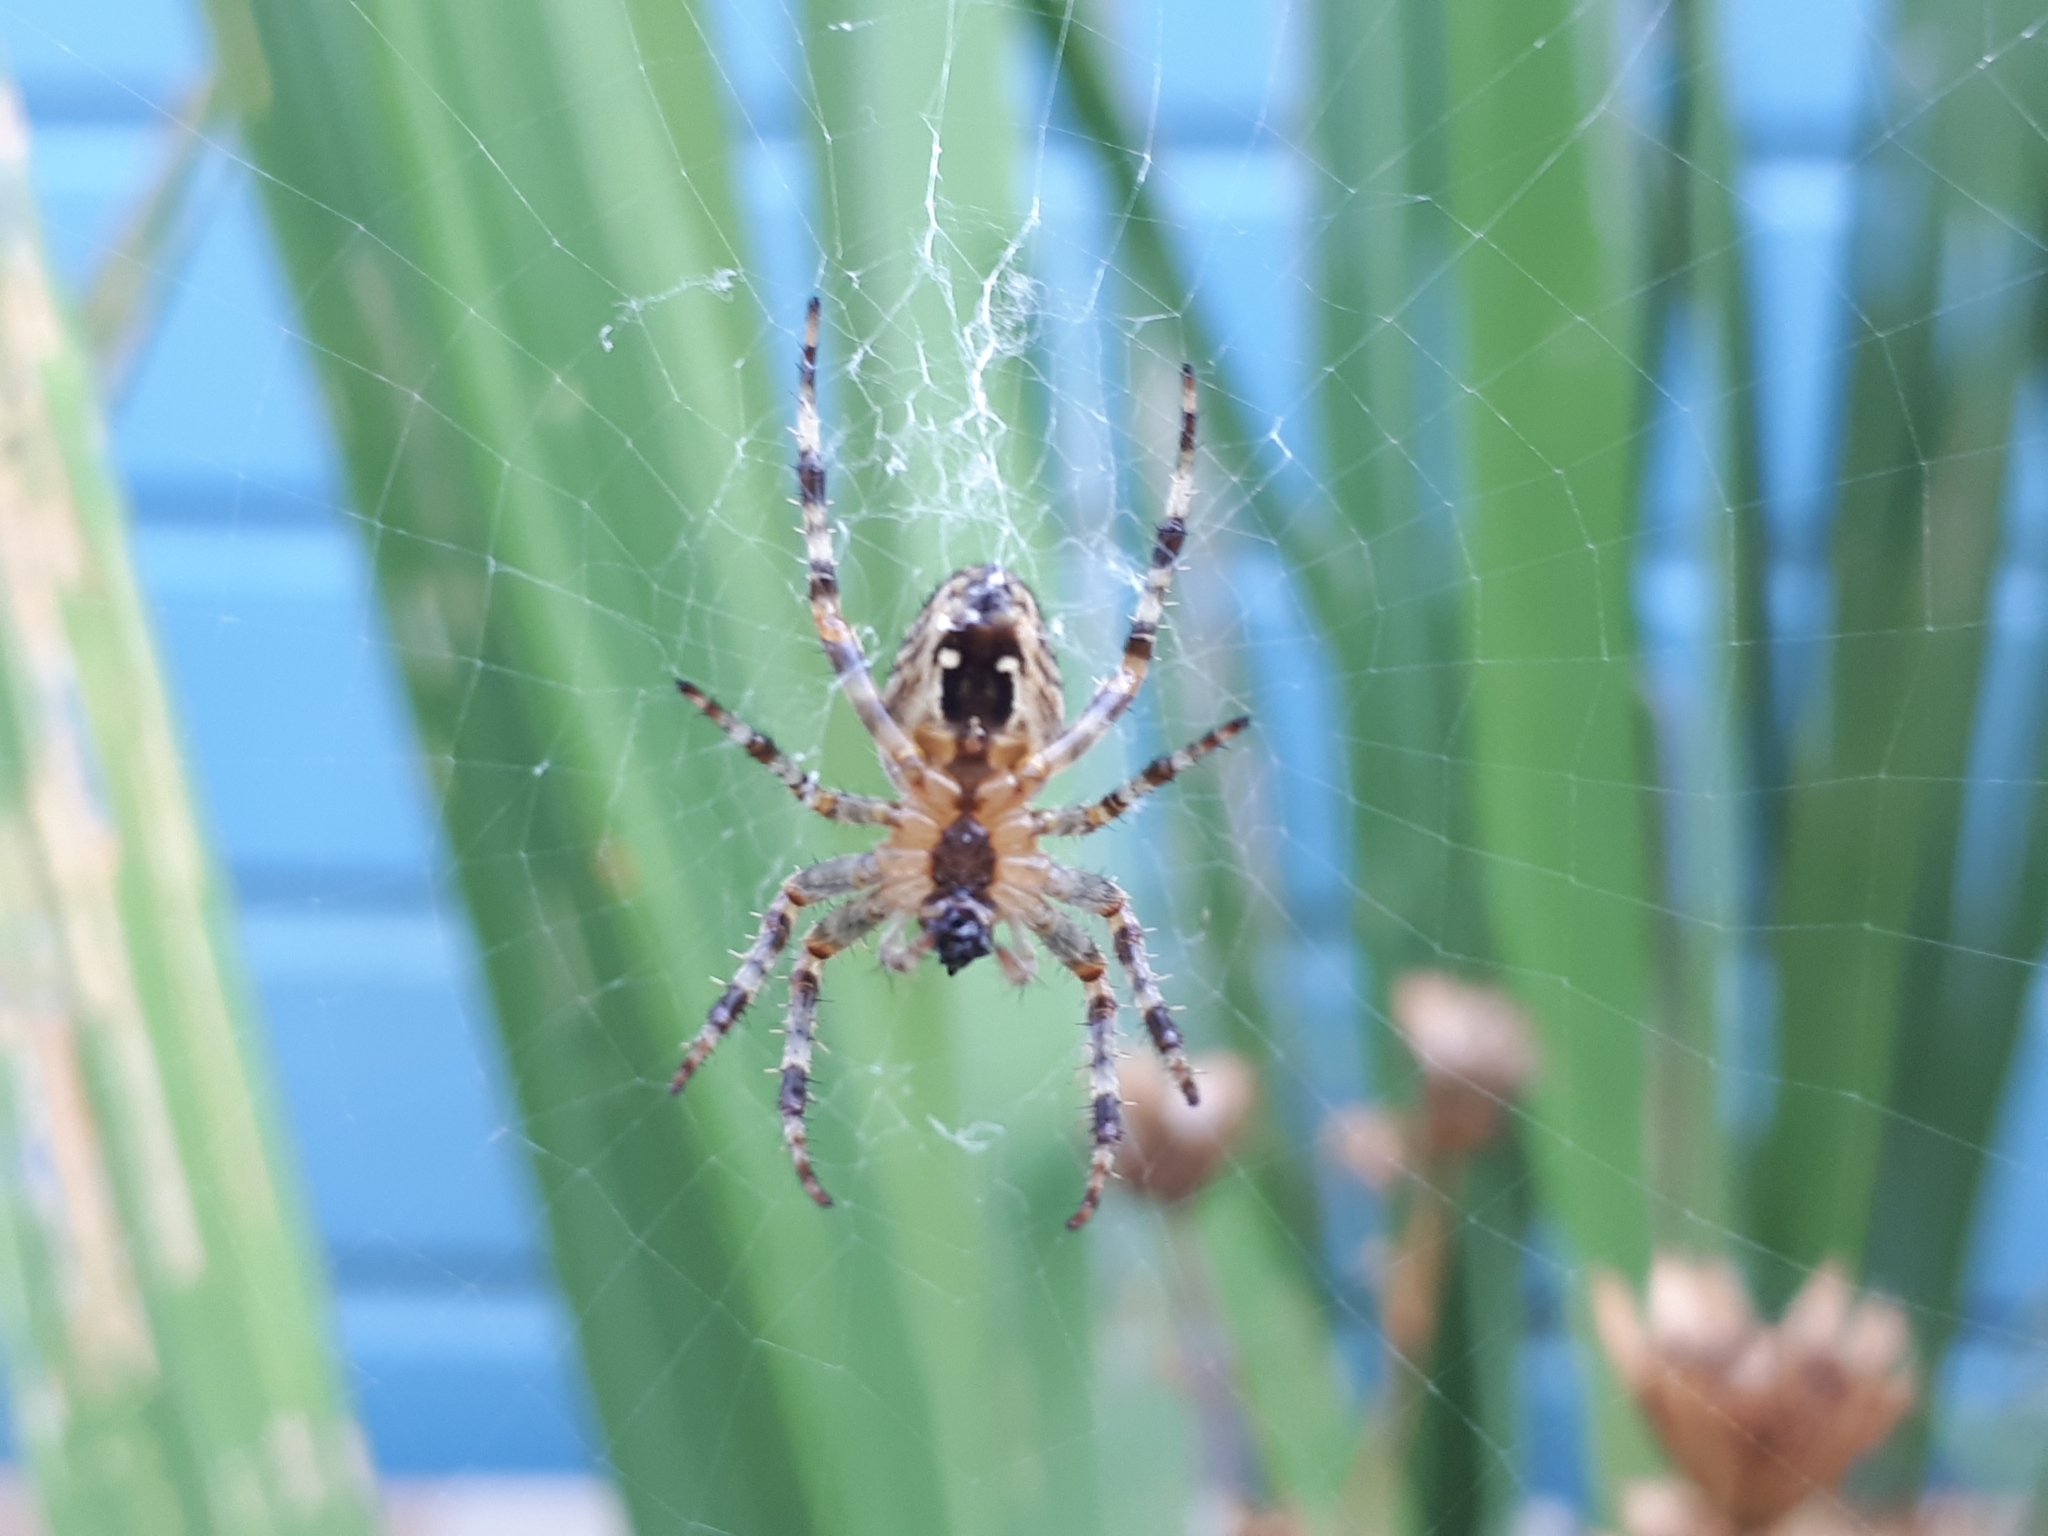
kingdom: Animalia
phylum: Arthropoda
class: Arachnida
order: Araneae
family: Araneidae
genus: Araneus
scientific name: Araneus diadematus
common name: Cross orbweaver
